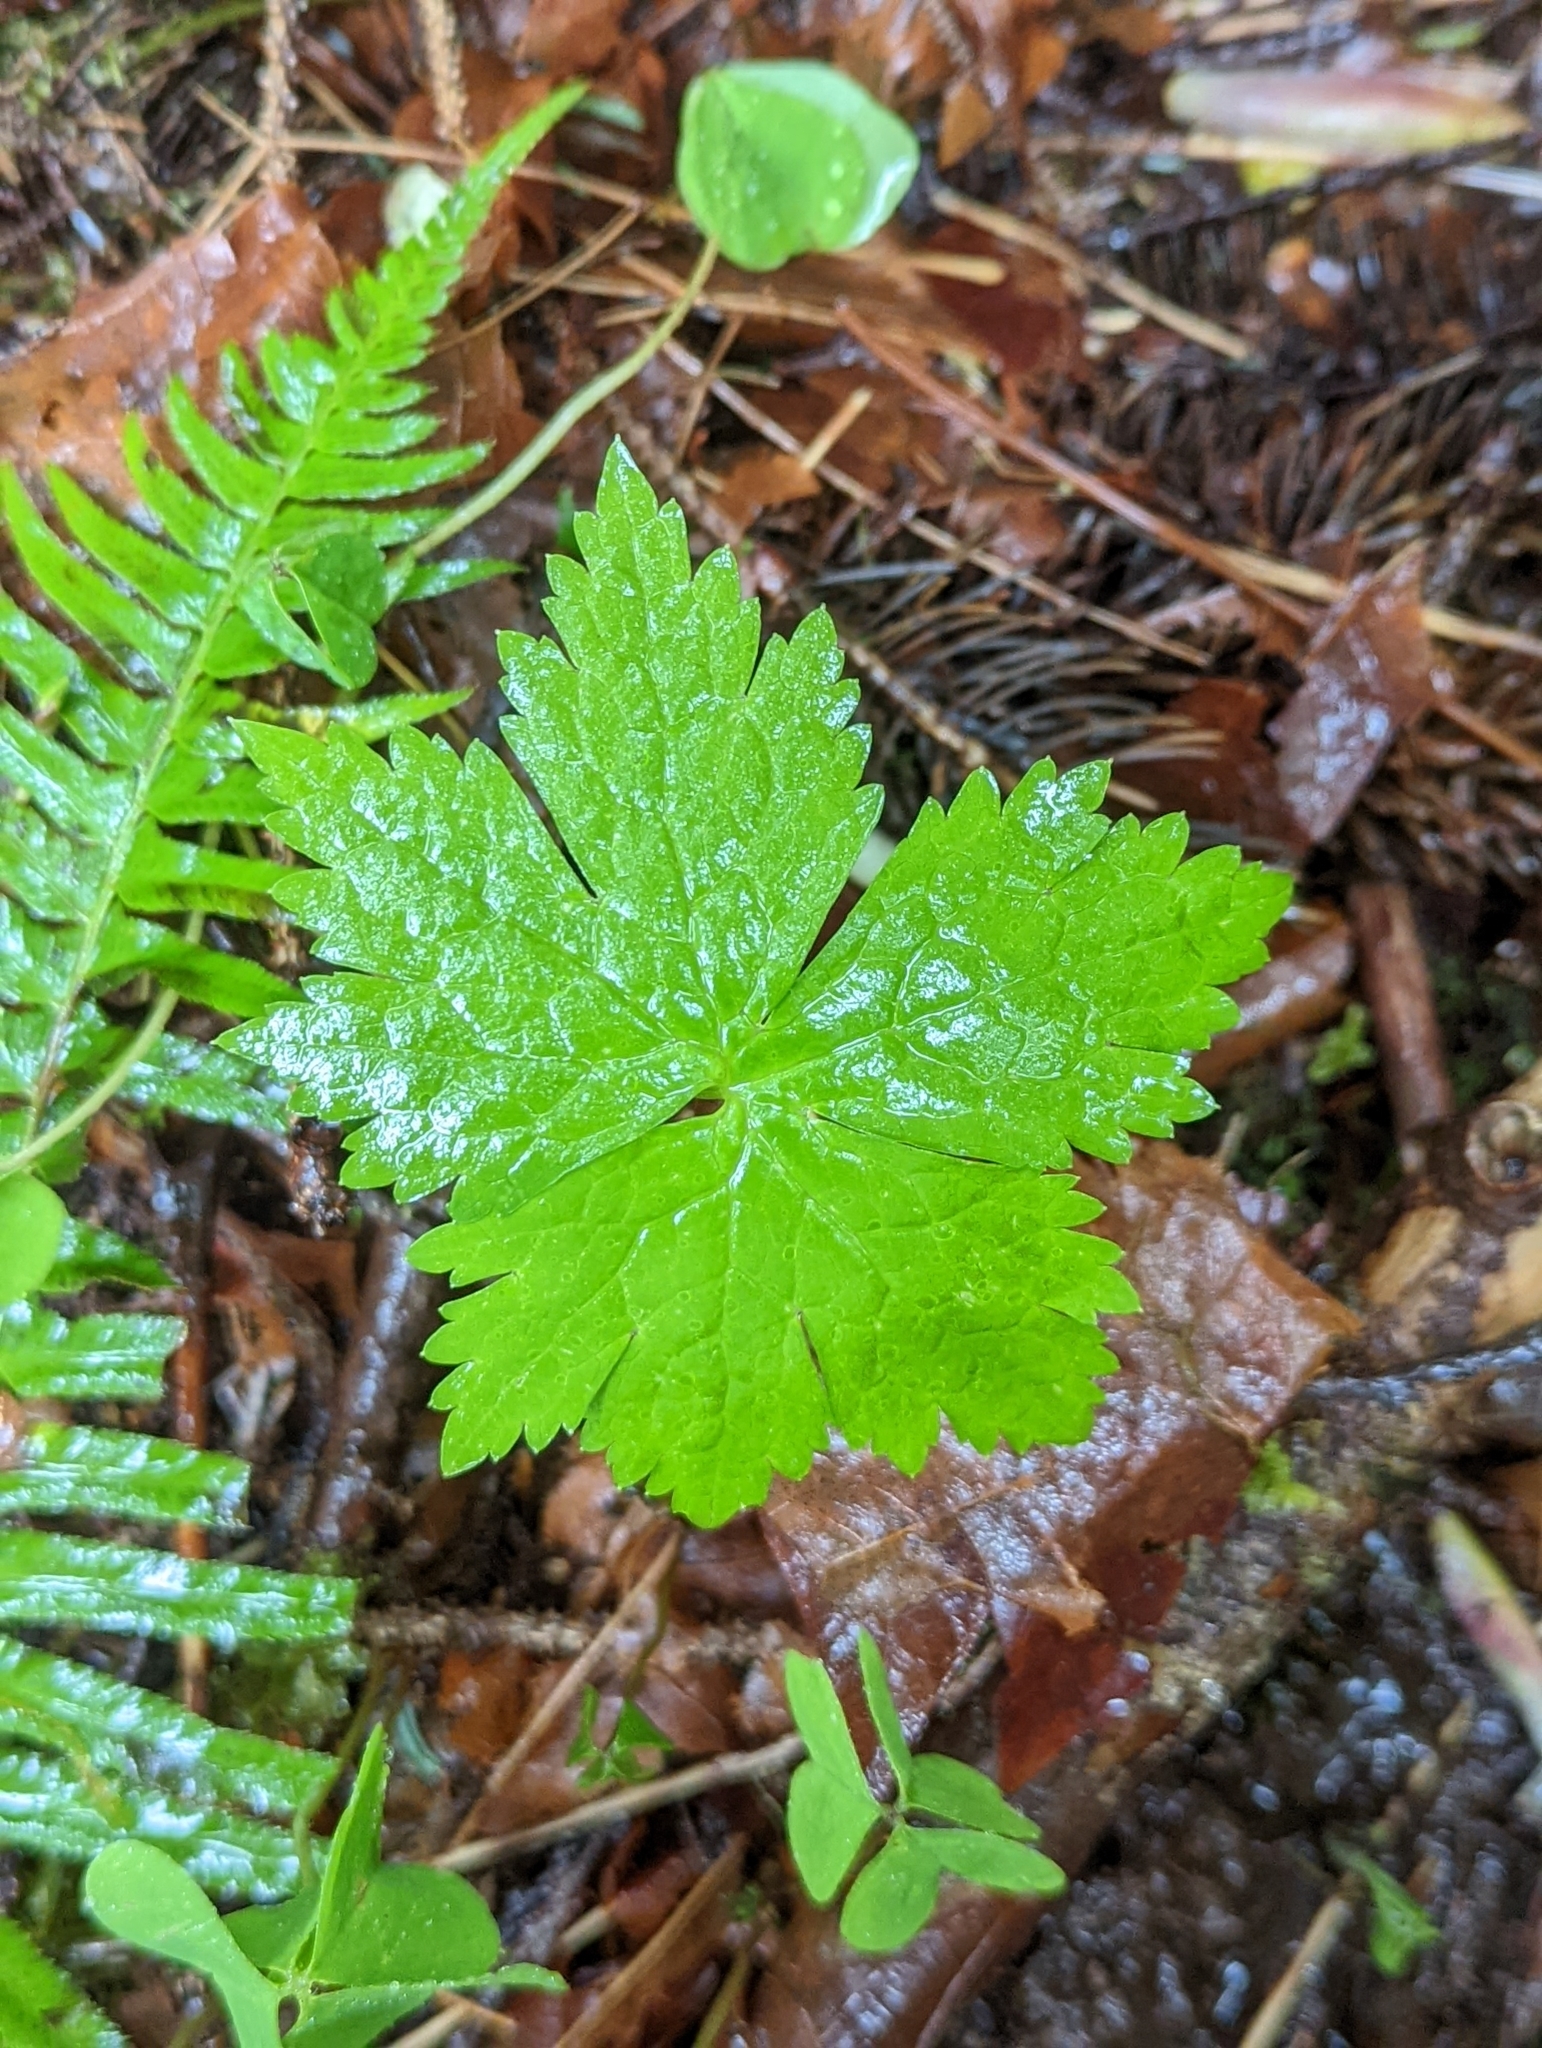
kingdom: Plantae
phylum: Tracheophyta
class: Magnoliopsida
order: Ranunculales
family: Ranunculaceae
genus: Trautvetteria
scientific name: Trautvetteria carolinensis
